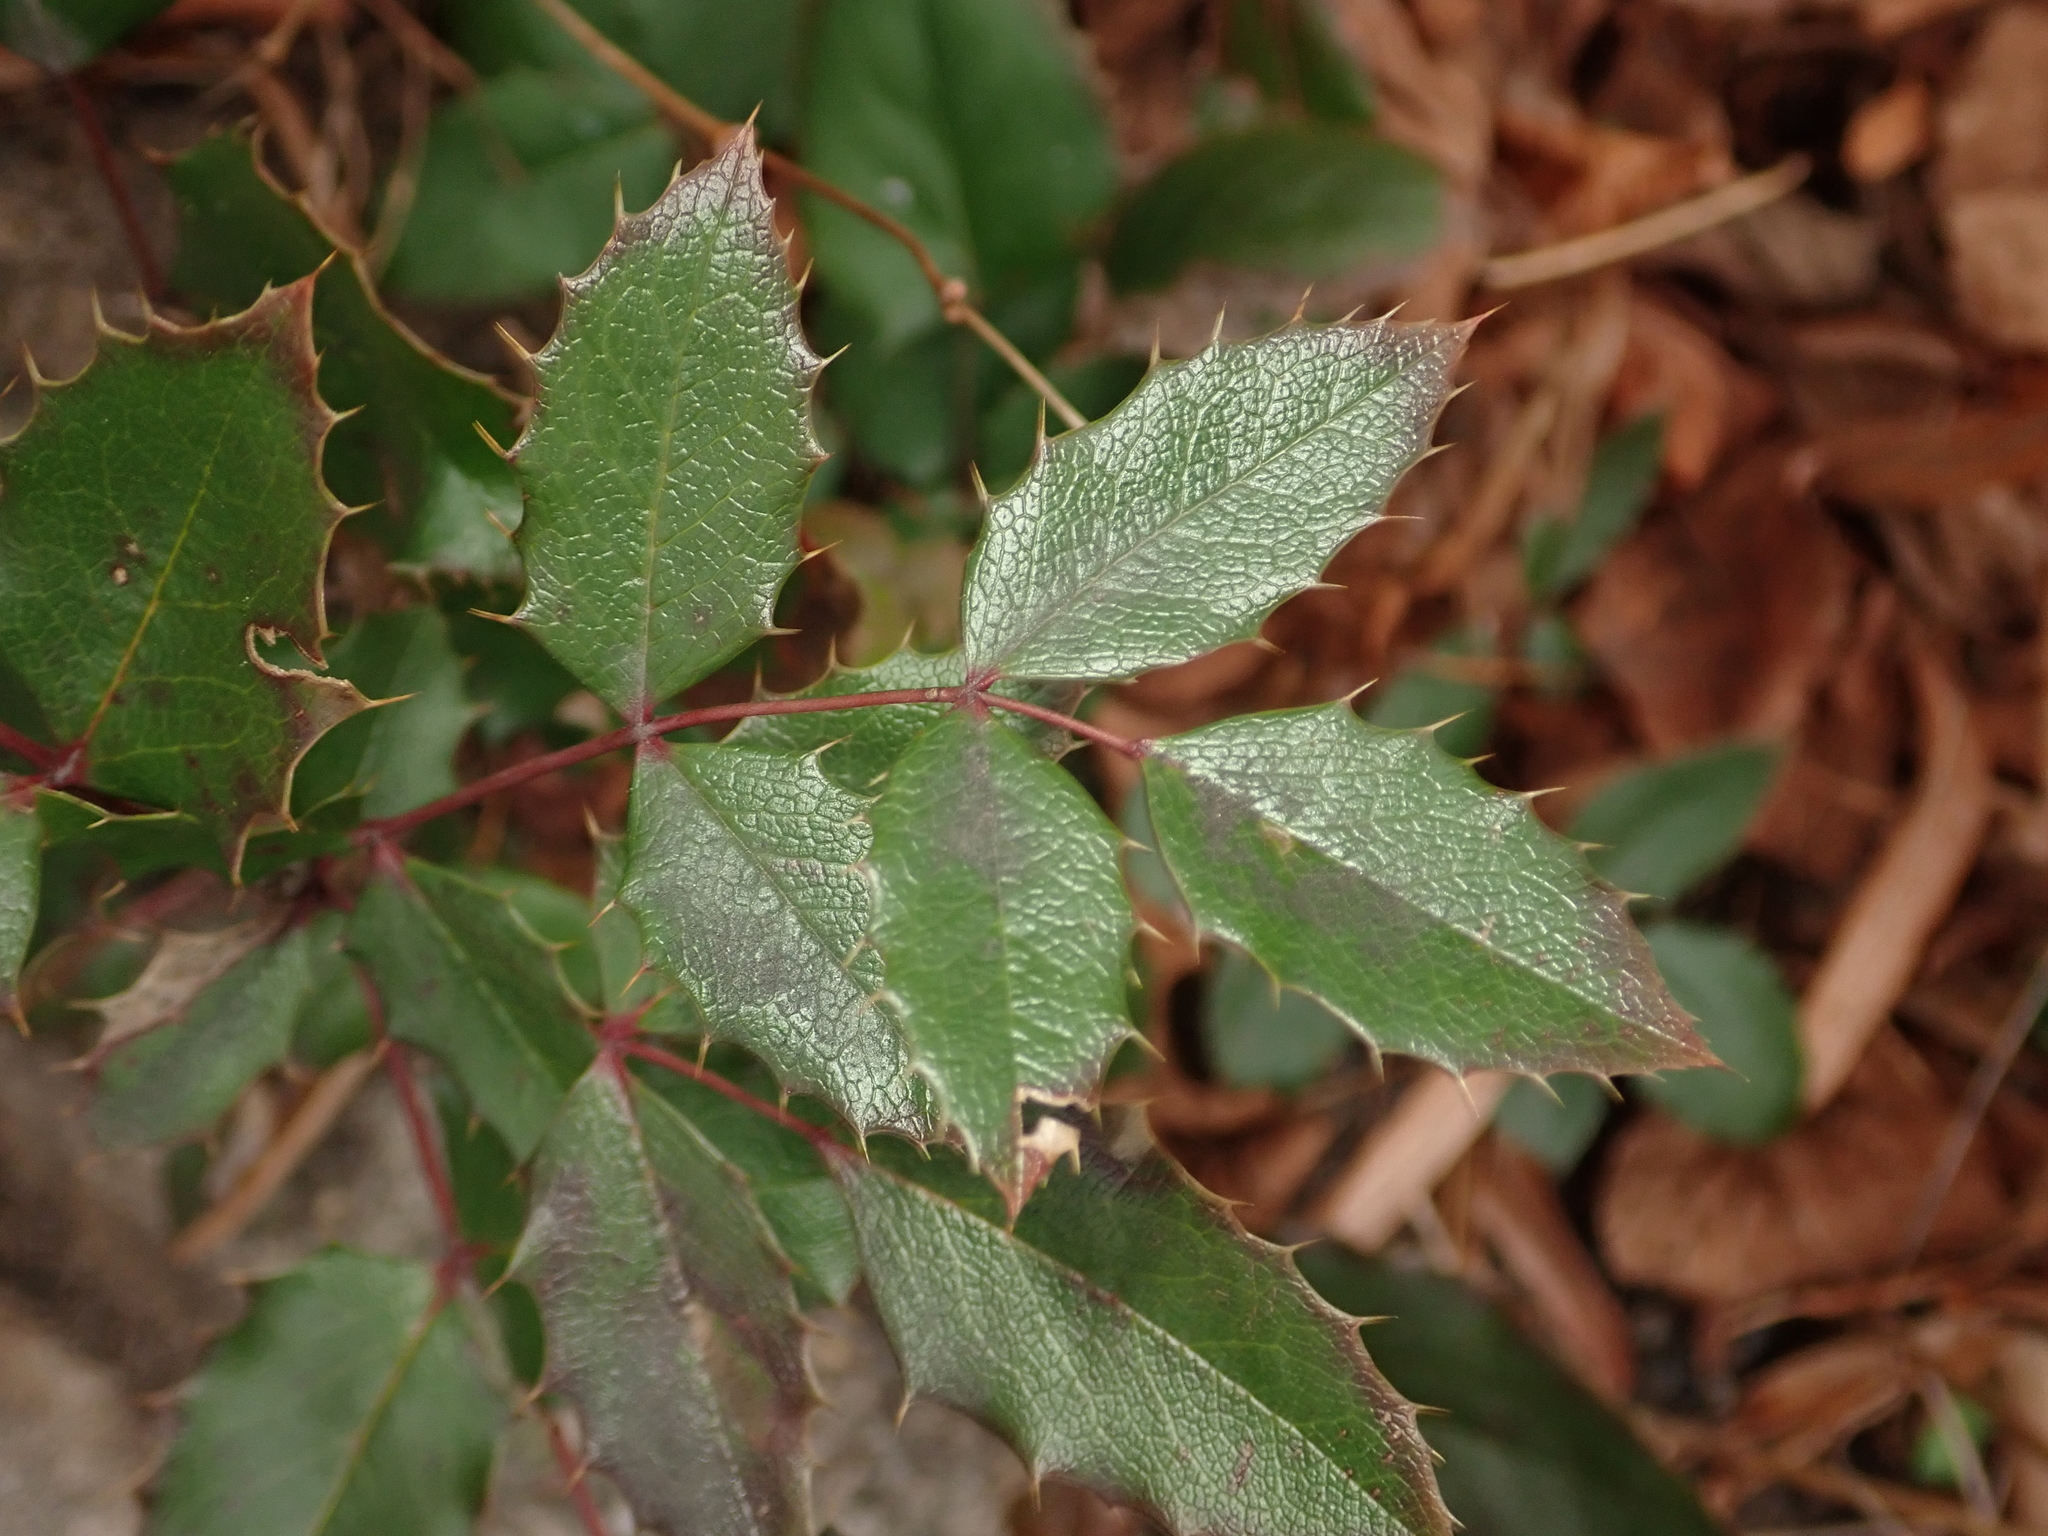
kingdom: Plantae
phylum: Tracheophyta
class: Magnoliopsida
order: Ranunculales
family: Berberidaceae
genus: Mahonia
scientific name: Mahonia aquifolium
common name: Oregon-grape
